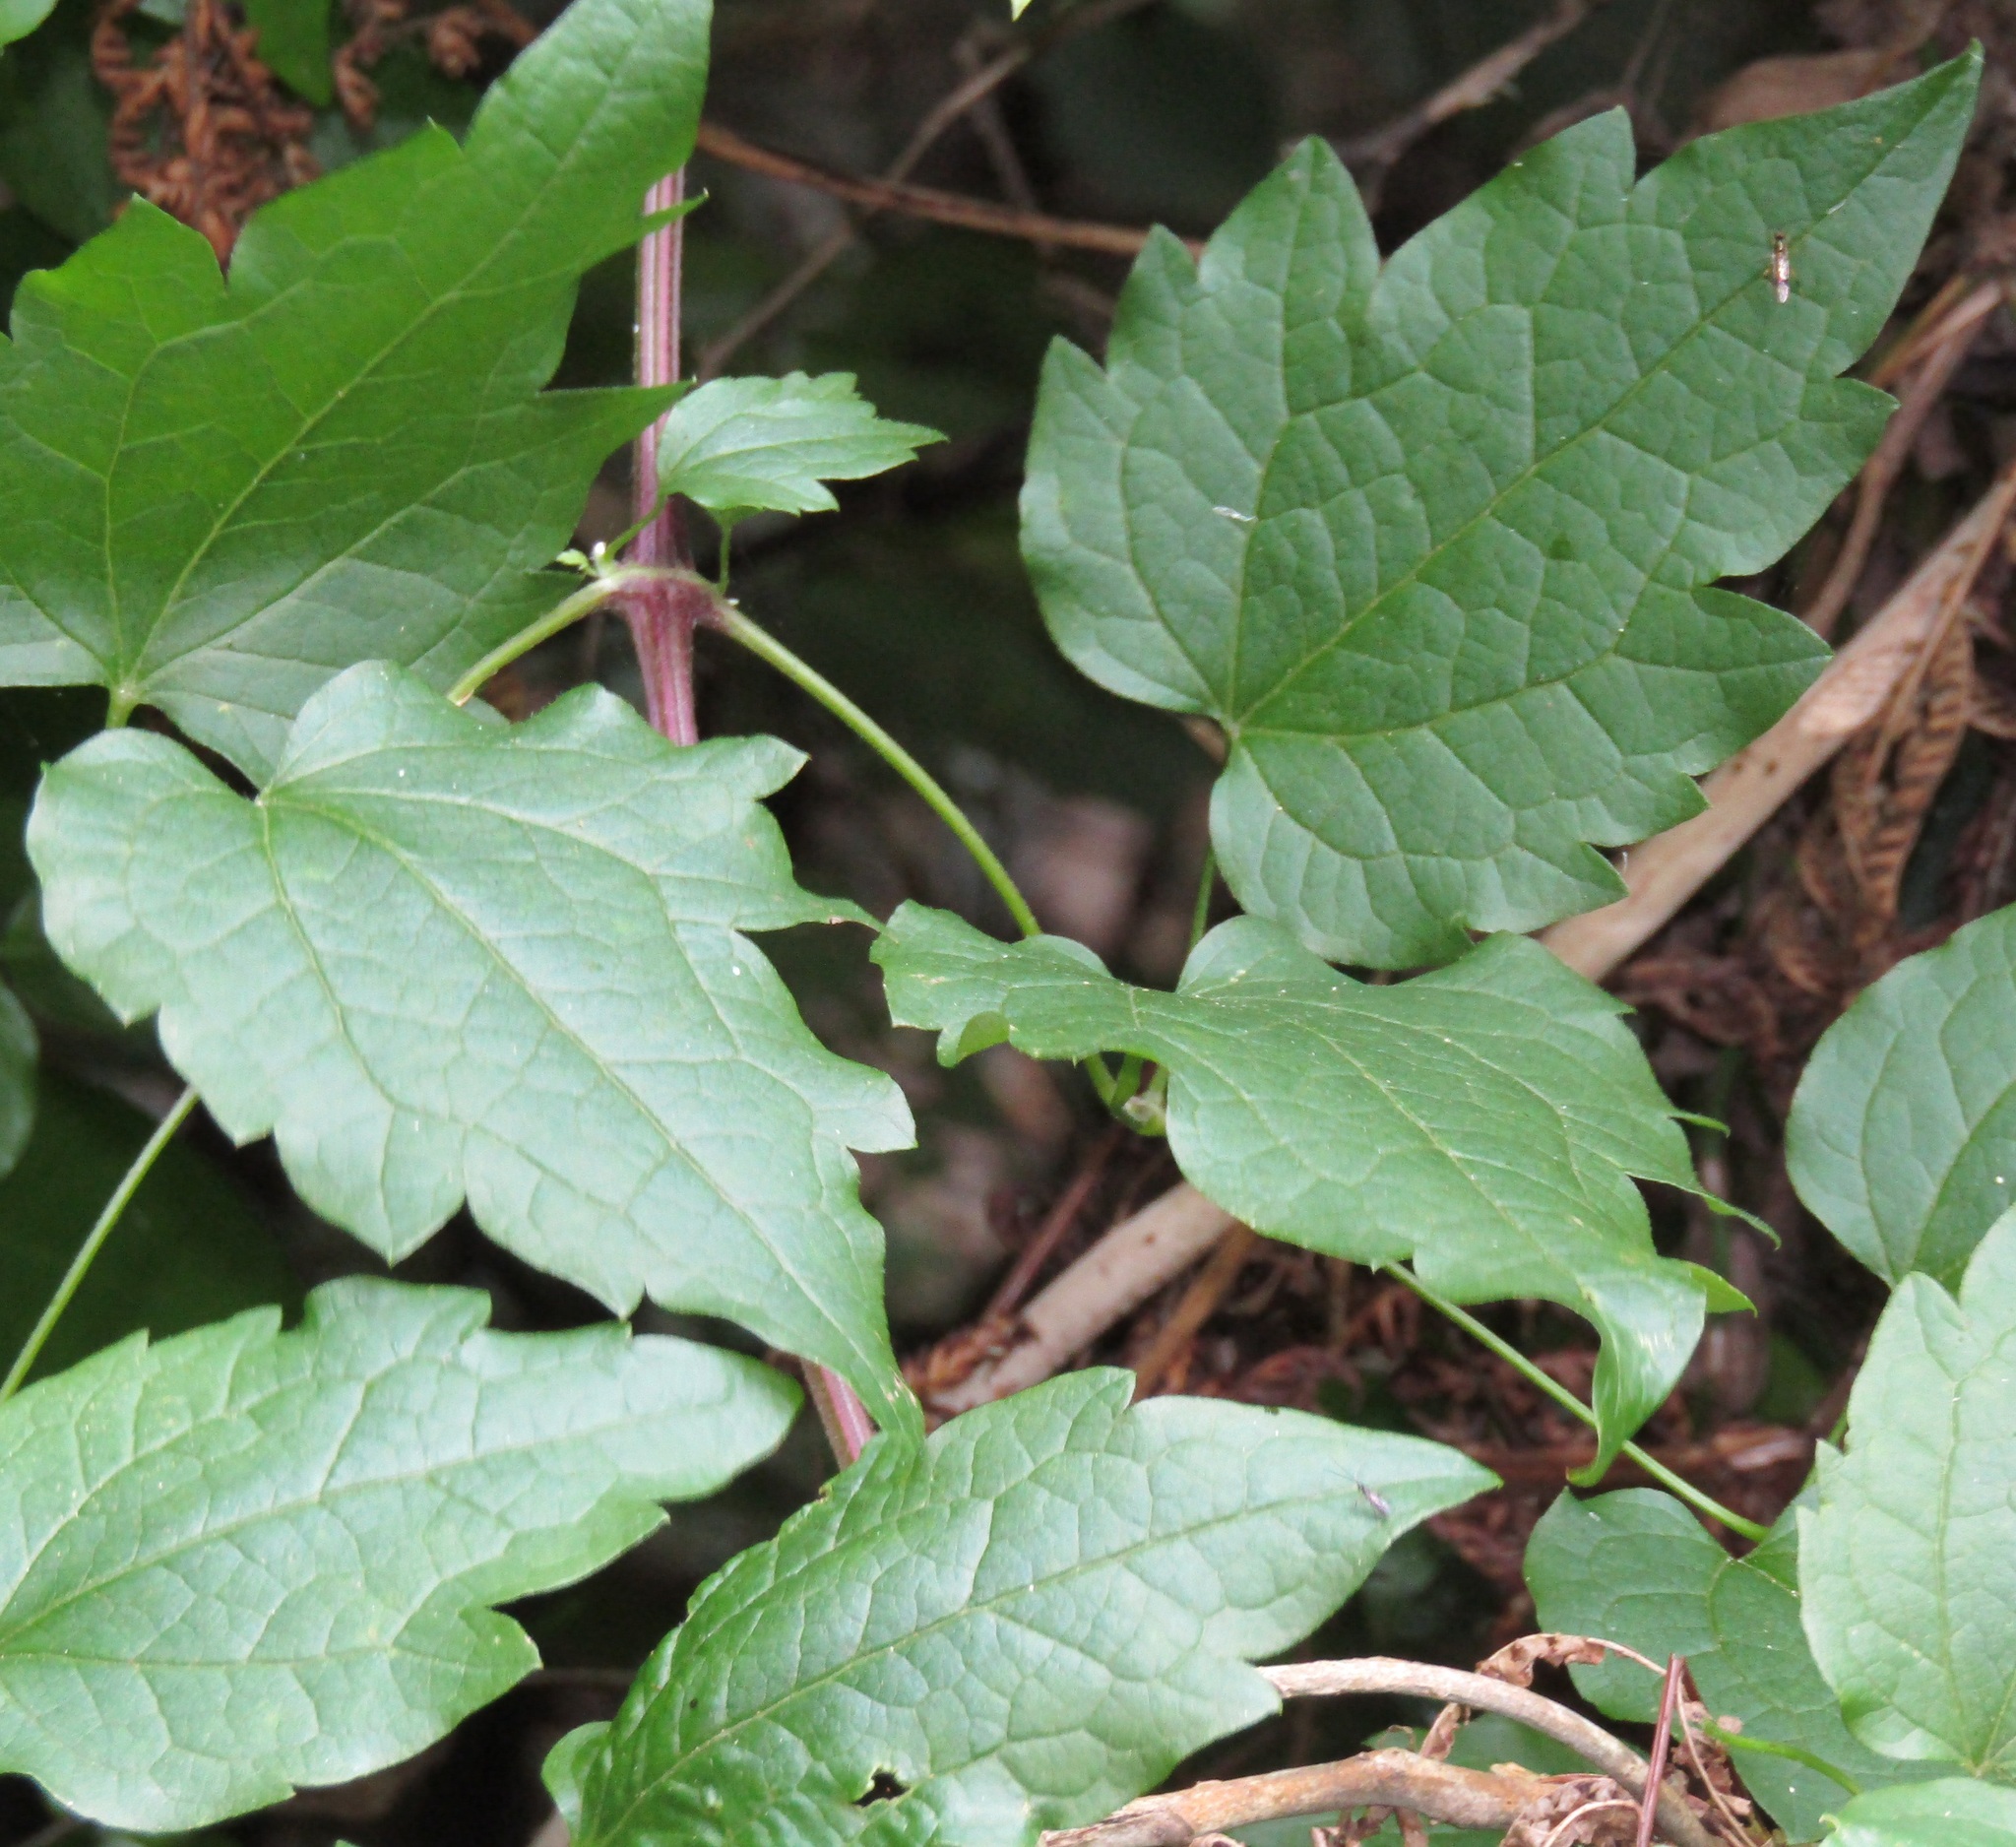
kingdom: Plantae
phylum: Tracheophyta
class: Magnoliopsida
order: Ranunculales
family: Ranunculaceae
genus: Clematis
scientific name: Clematis vitalba
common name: Evergreen clematis
